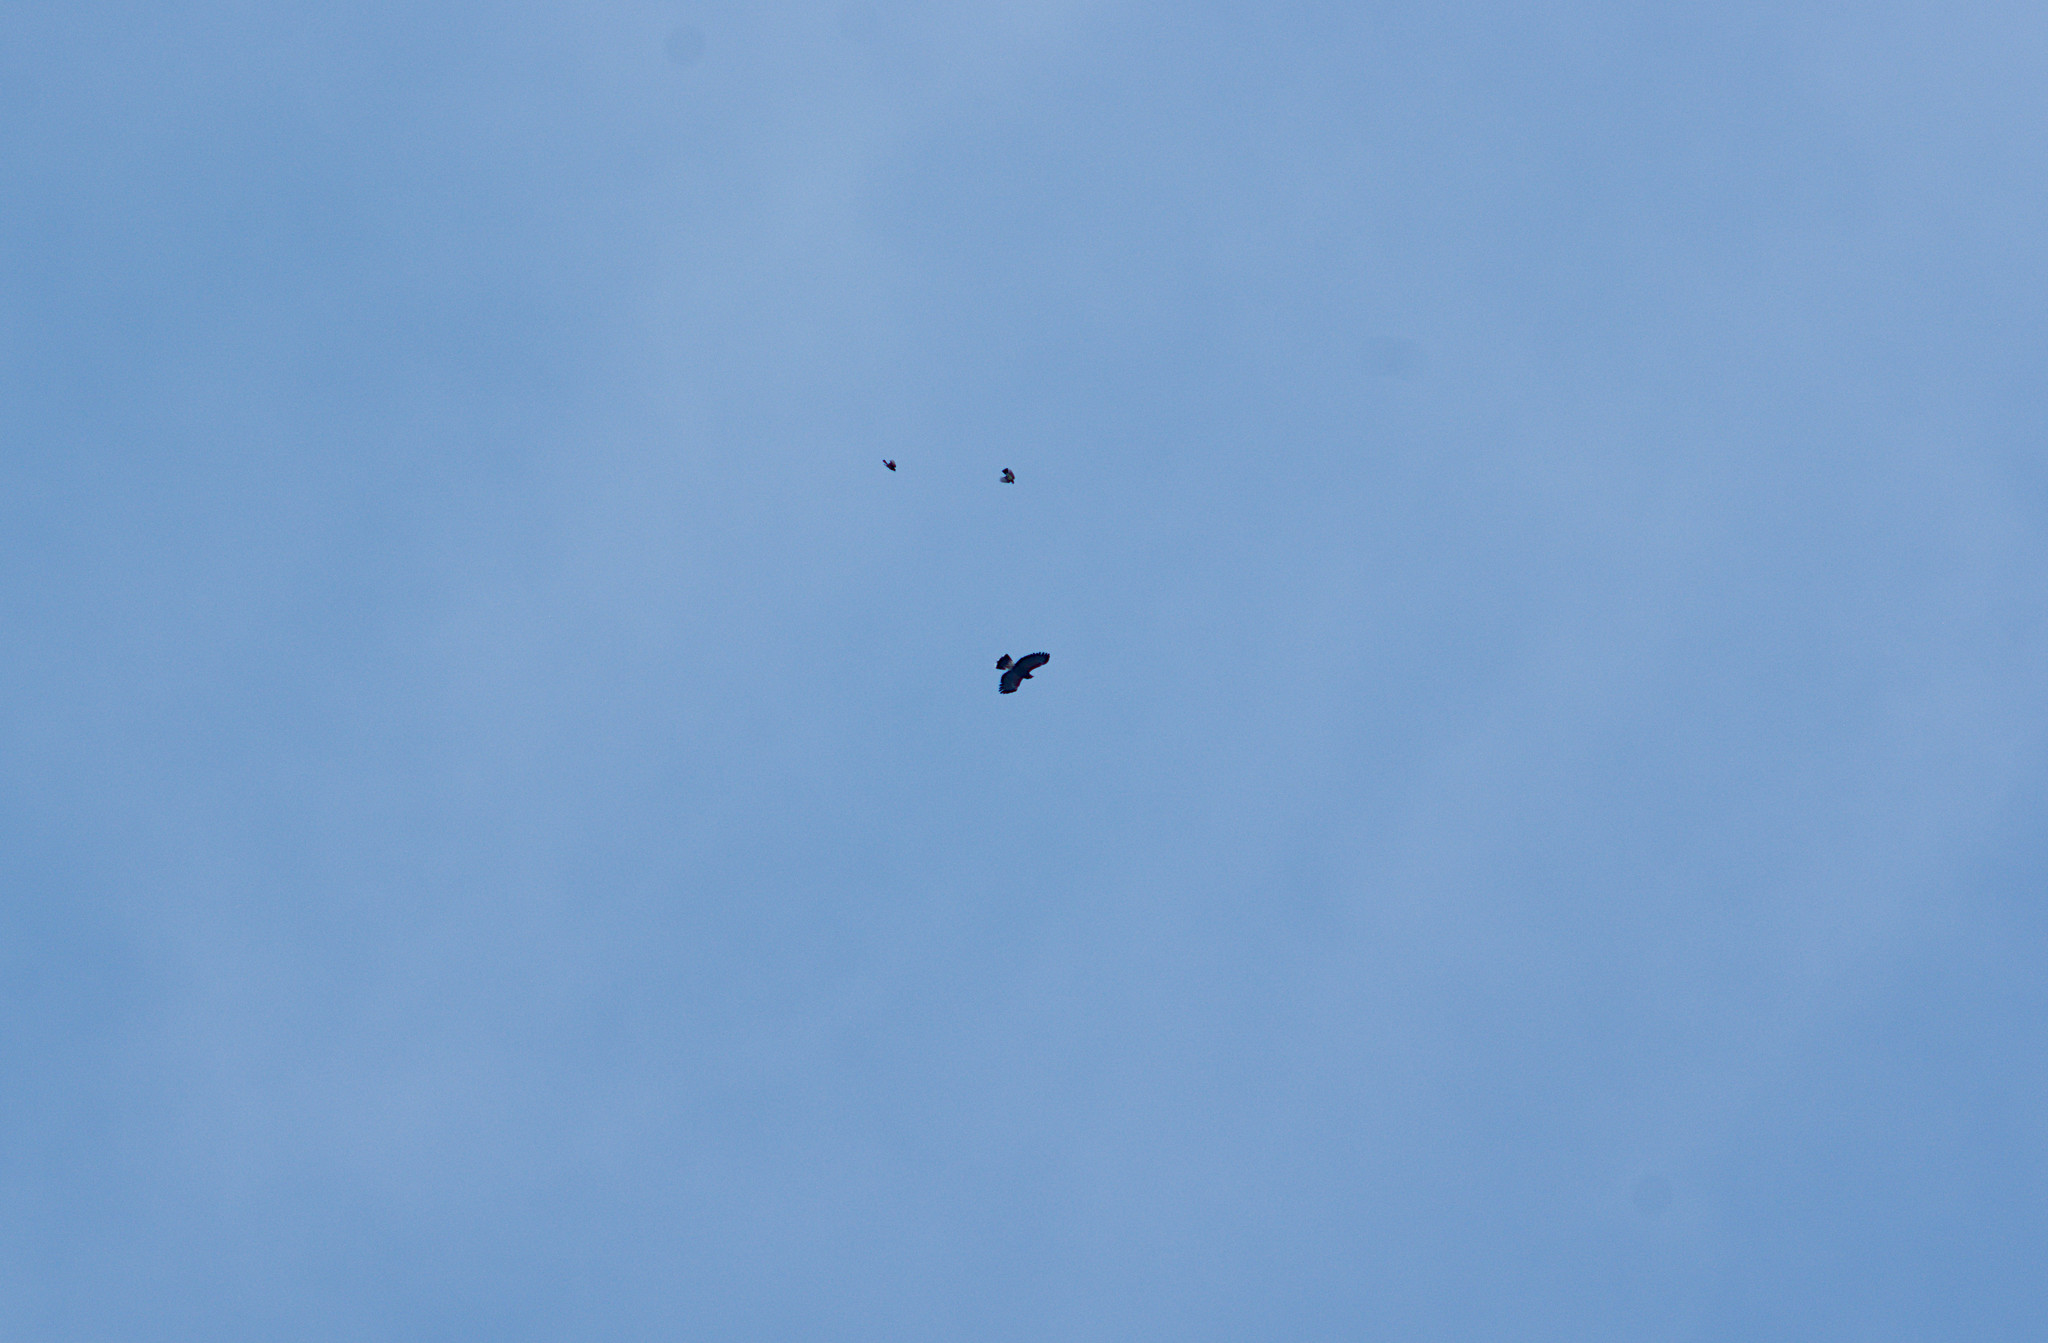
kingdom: Animalia
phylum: Chordata
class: Aves
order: Accipitriformes
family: Accipitridae
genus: Parabuteo
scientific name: Parabuteo unicinctus
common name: Harris's hawk
